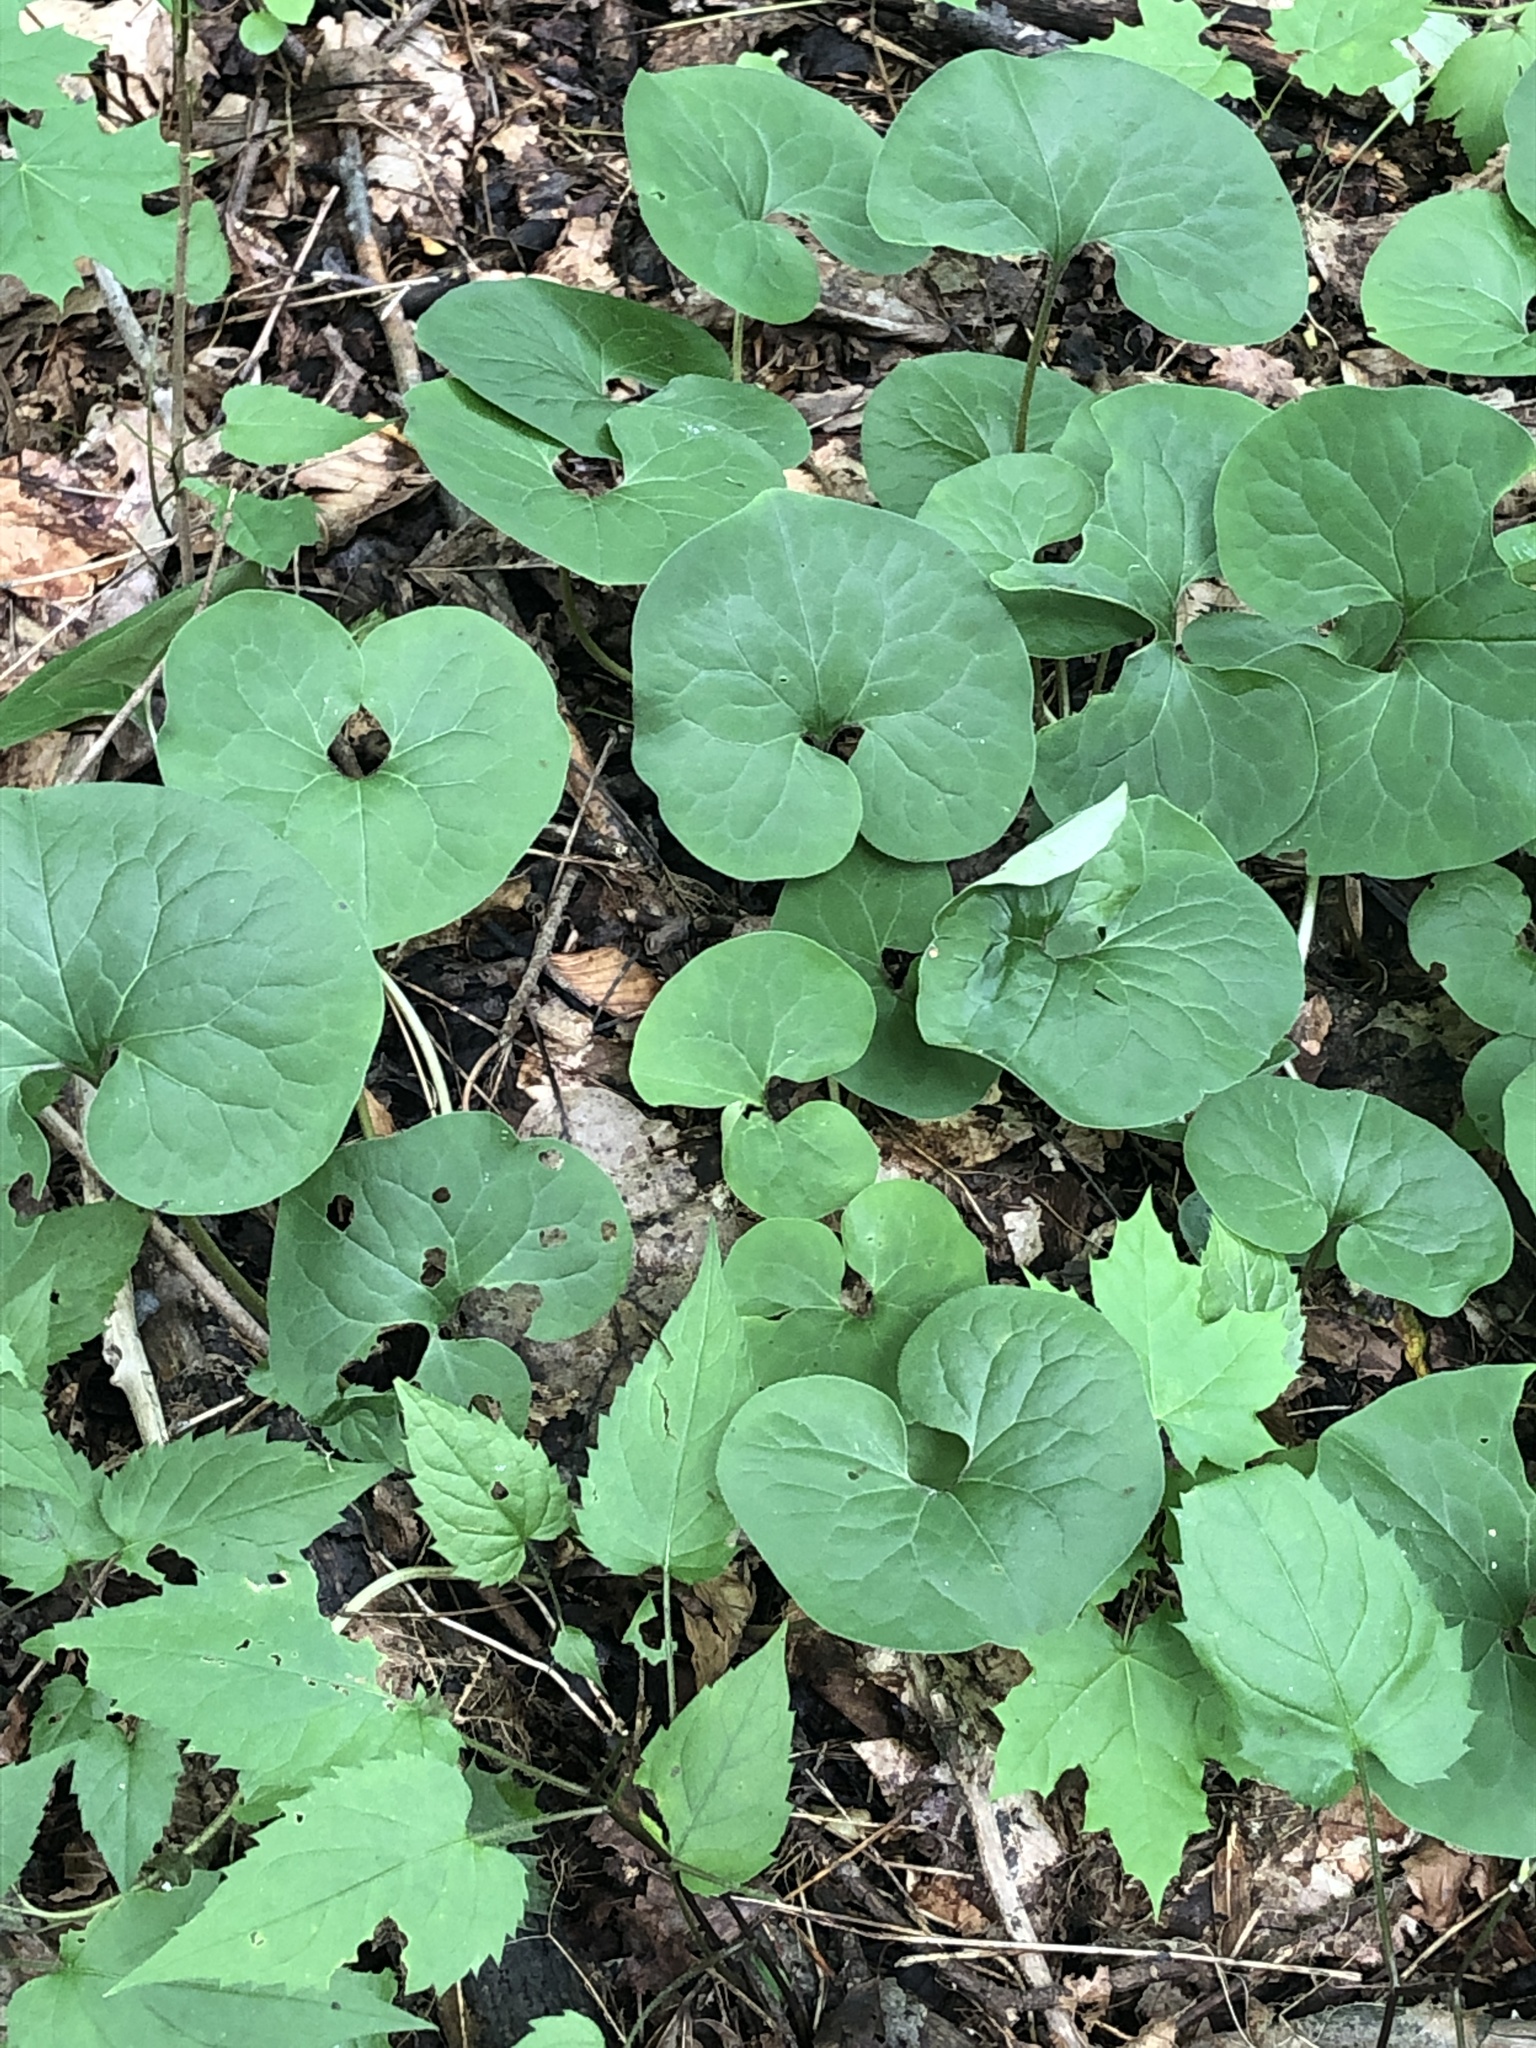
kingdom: Plantae
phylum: Tracheophyta
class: Magnoliopsida
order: Piperales
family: Aristolochiaceae
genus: Asarum
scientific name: Asarum canadense
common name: Wild ginger
